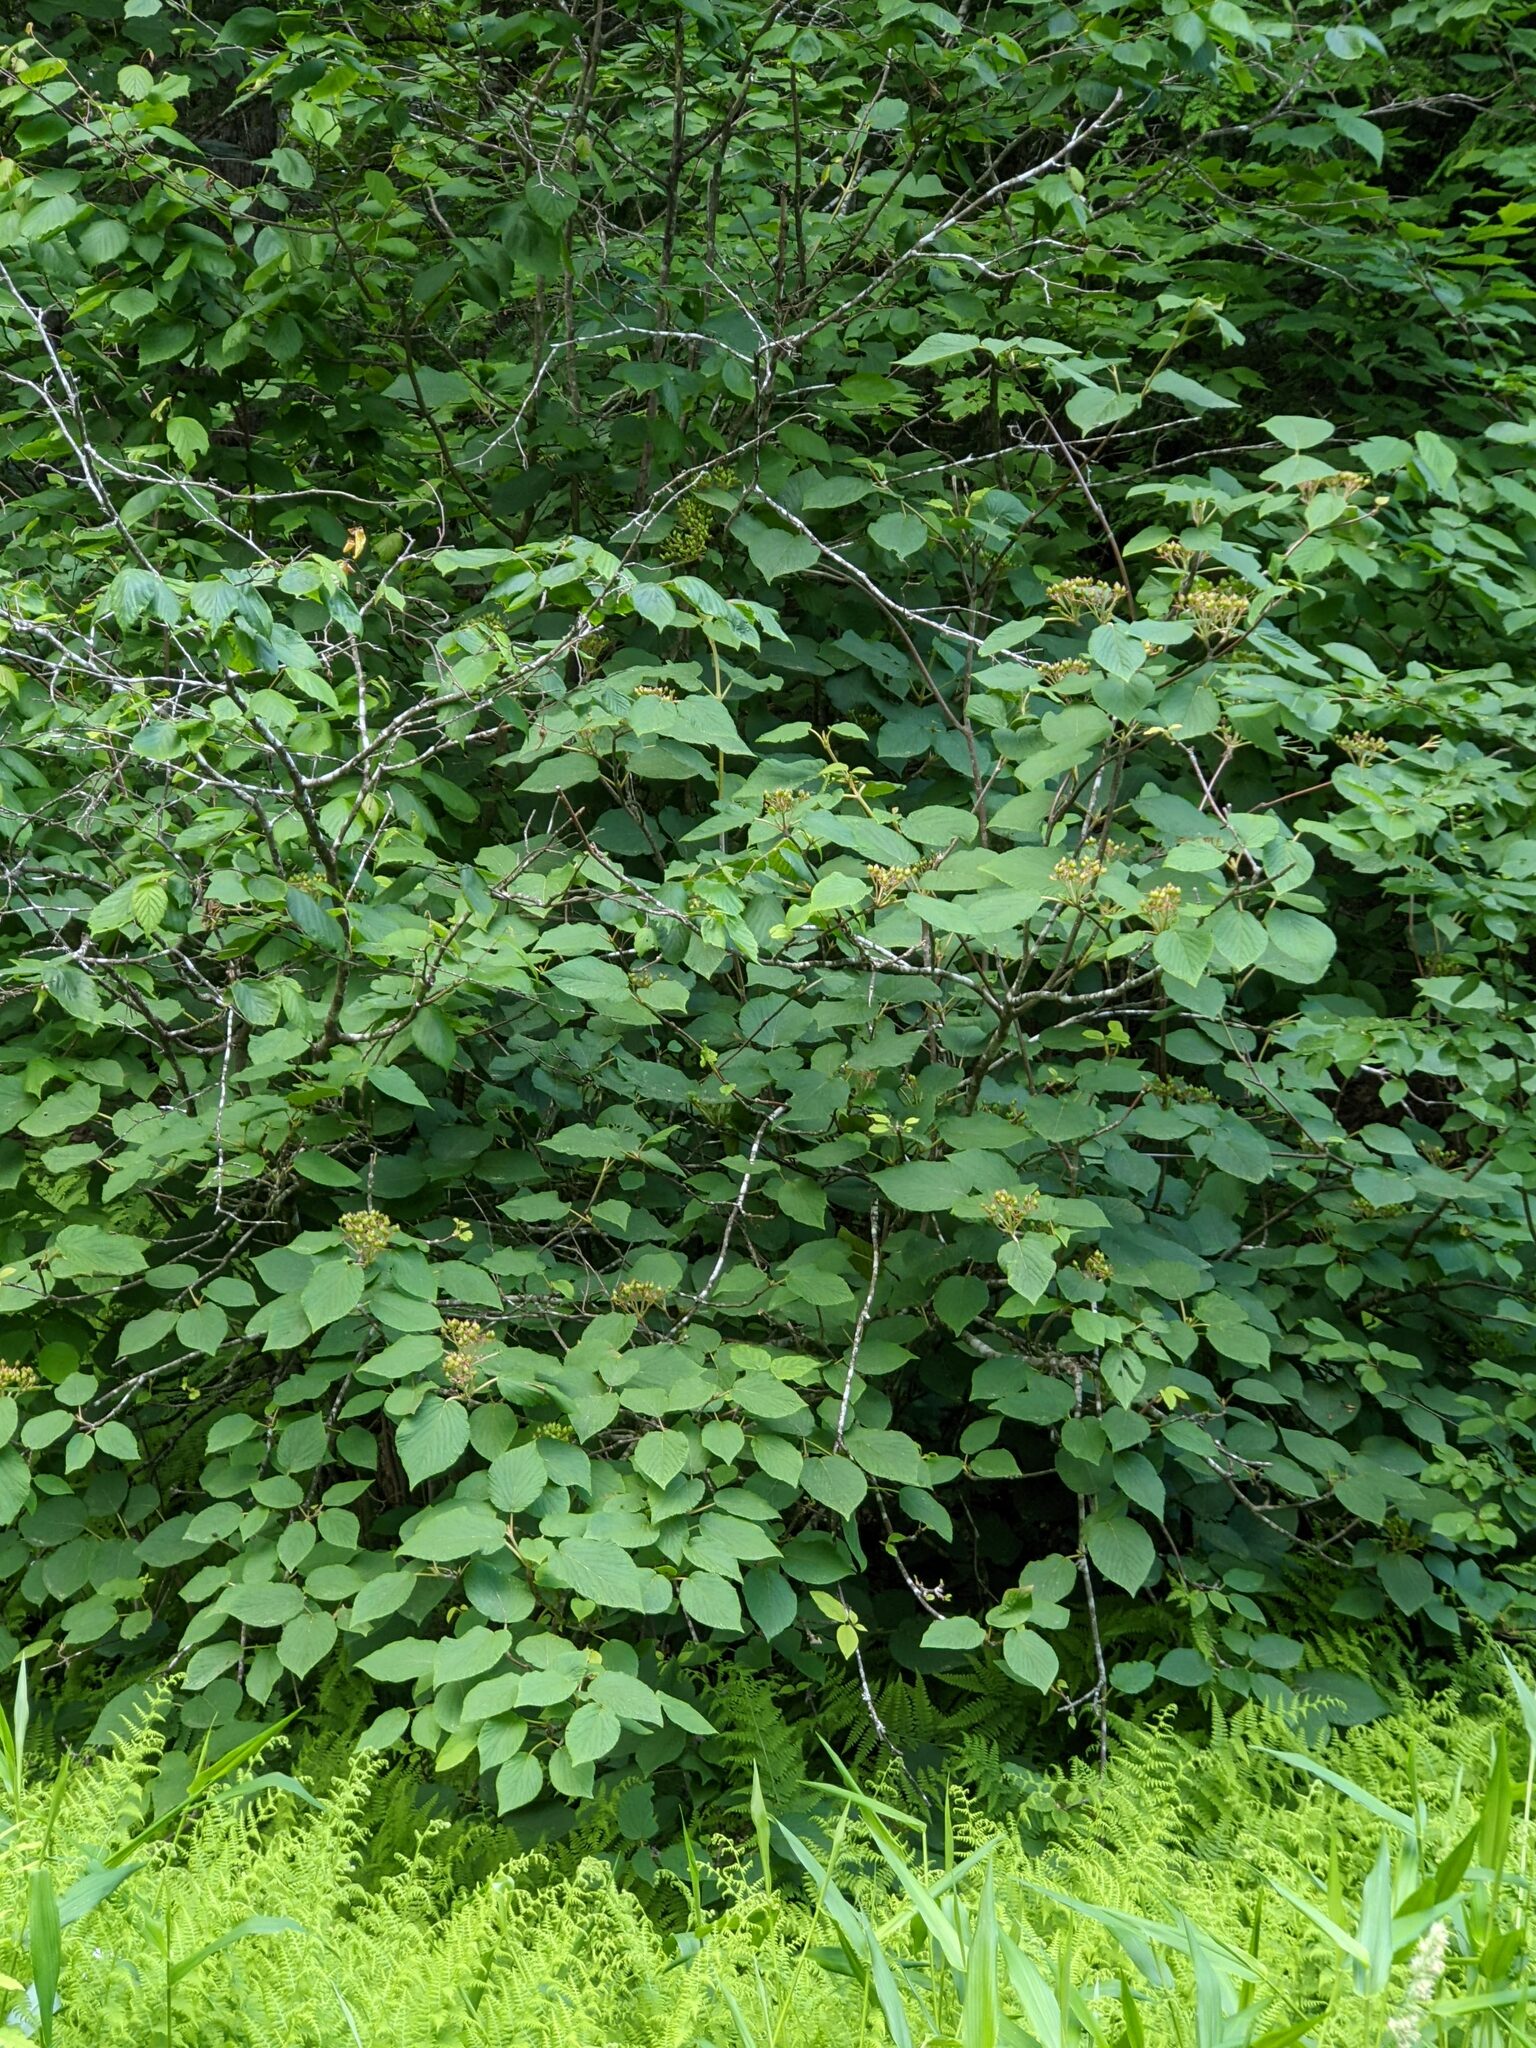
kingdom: Plantae
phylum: Tracheophyta
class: Magnoliopsida
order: Dipsacales
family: Viburnaceae
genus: Viburnum
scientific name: Viburnum lantanoides
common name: Hobblebush
